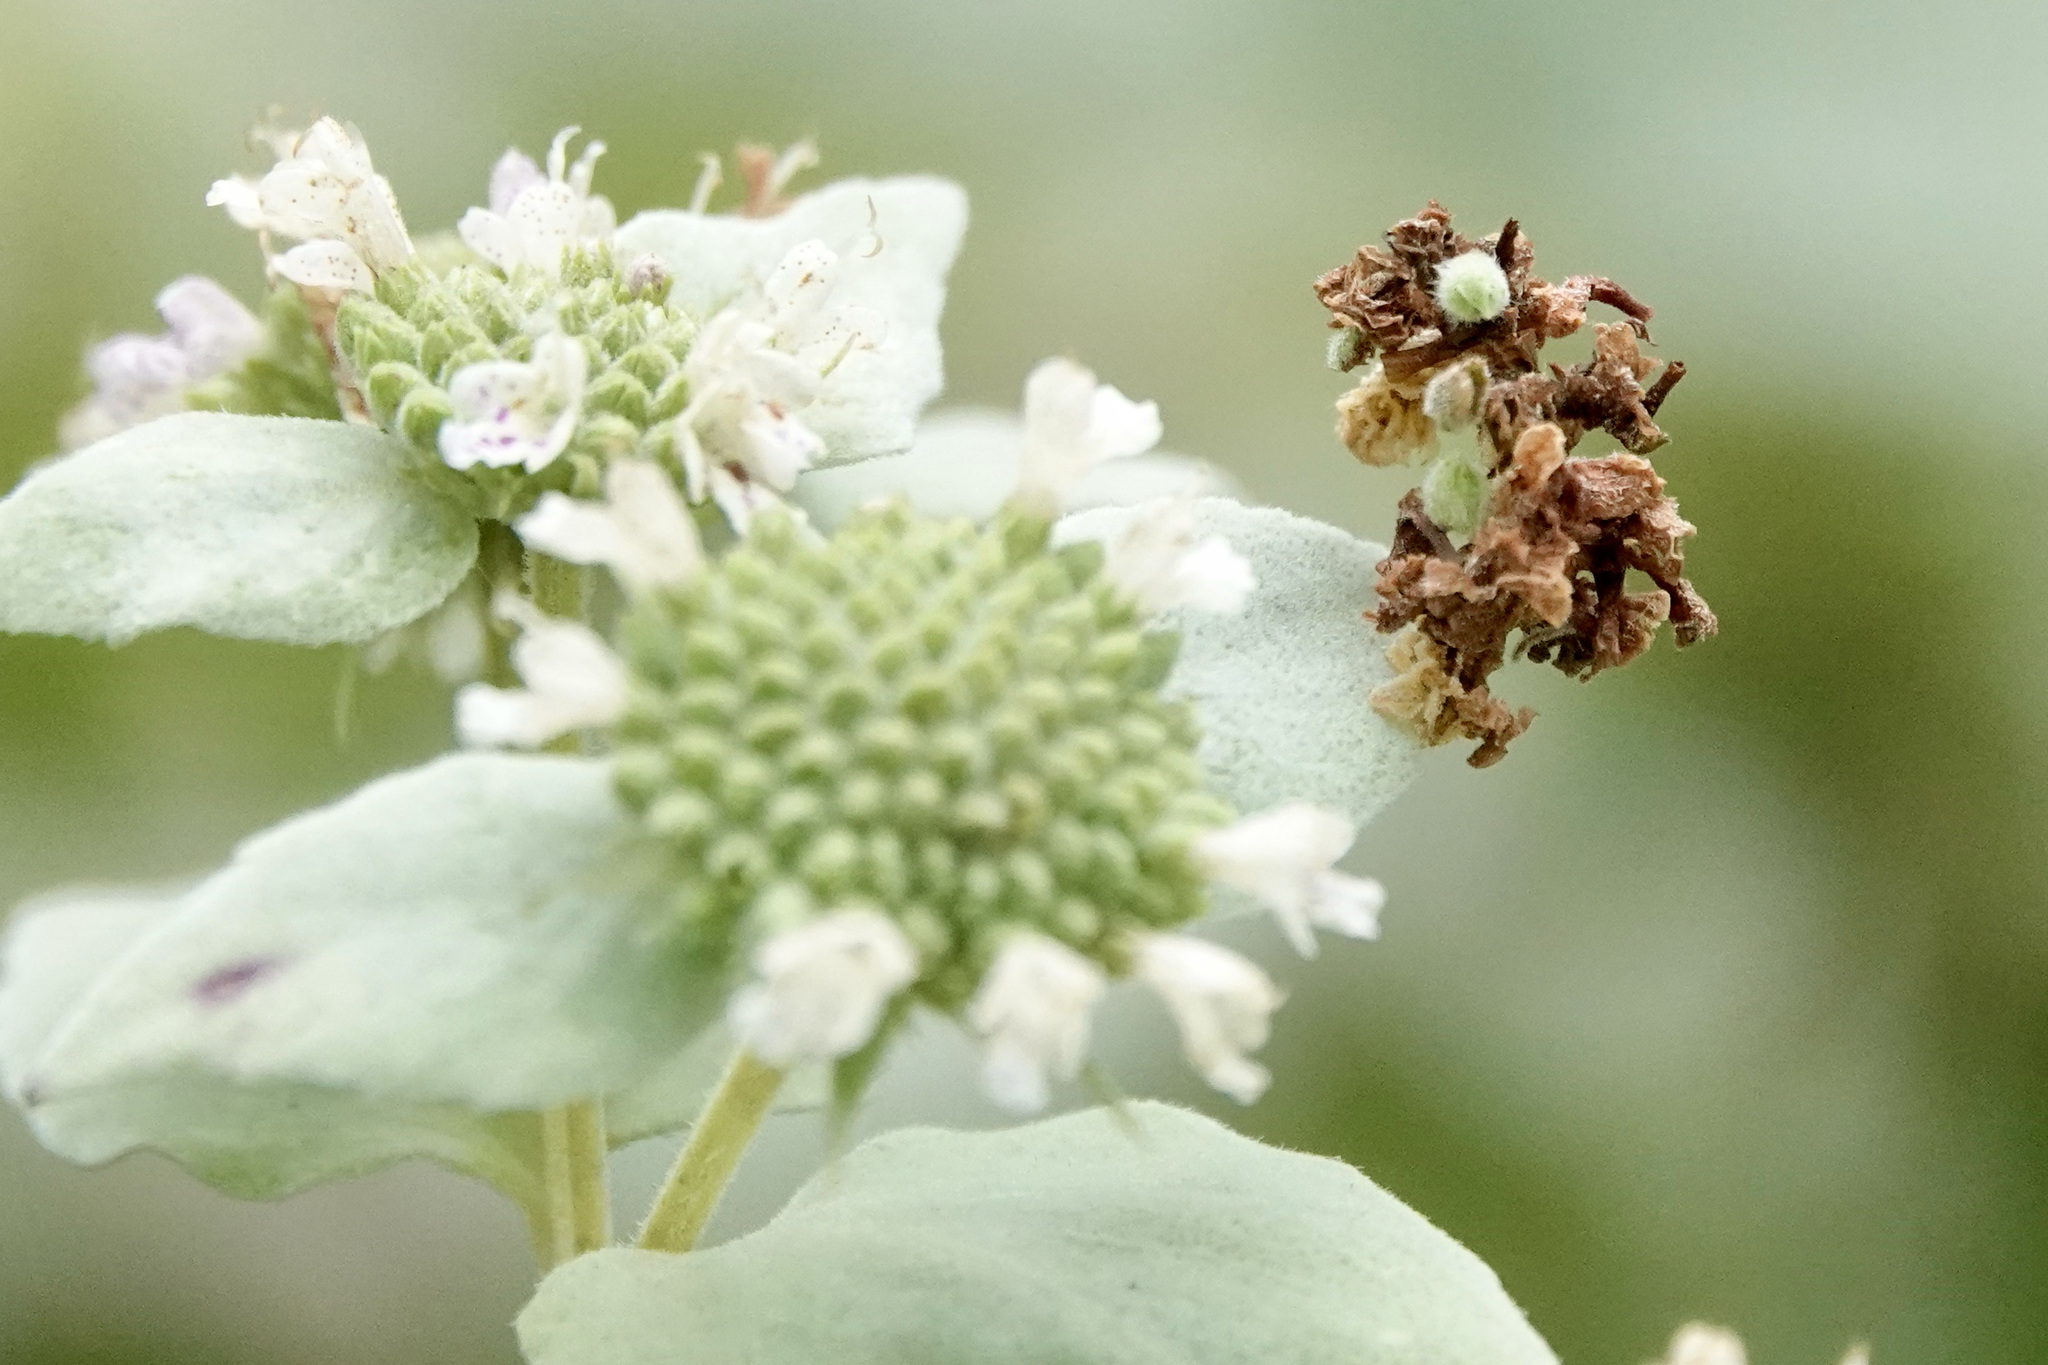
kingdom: Animalia
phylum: Arthropoda
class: Insecta
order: Lepidoptera
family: Geometridae
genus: Synchlora
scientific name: Synchlora
